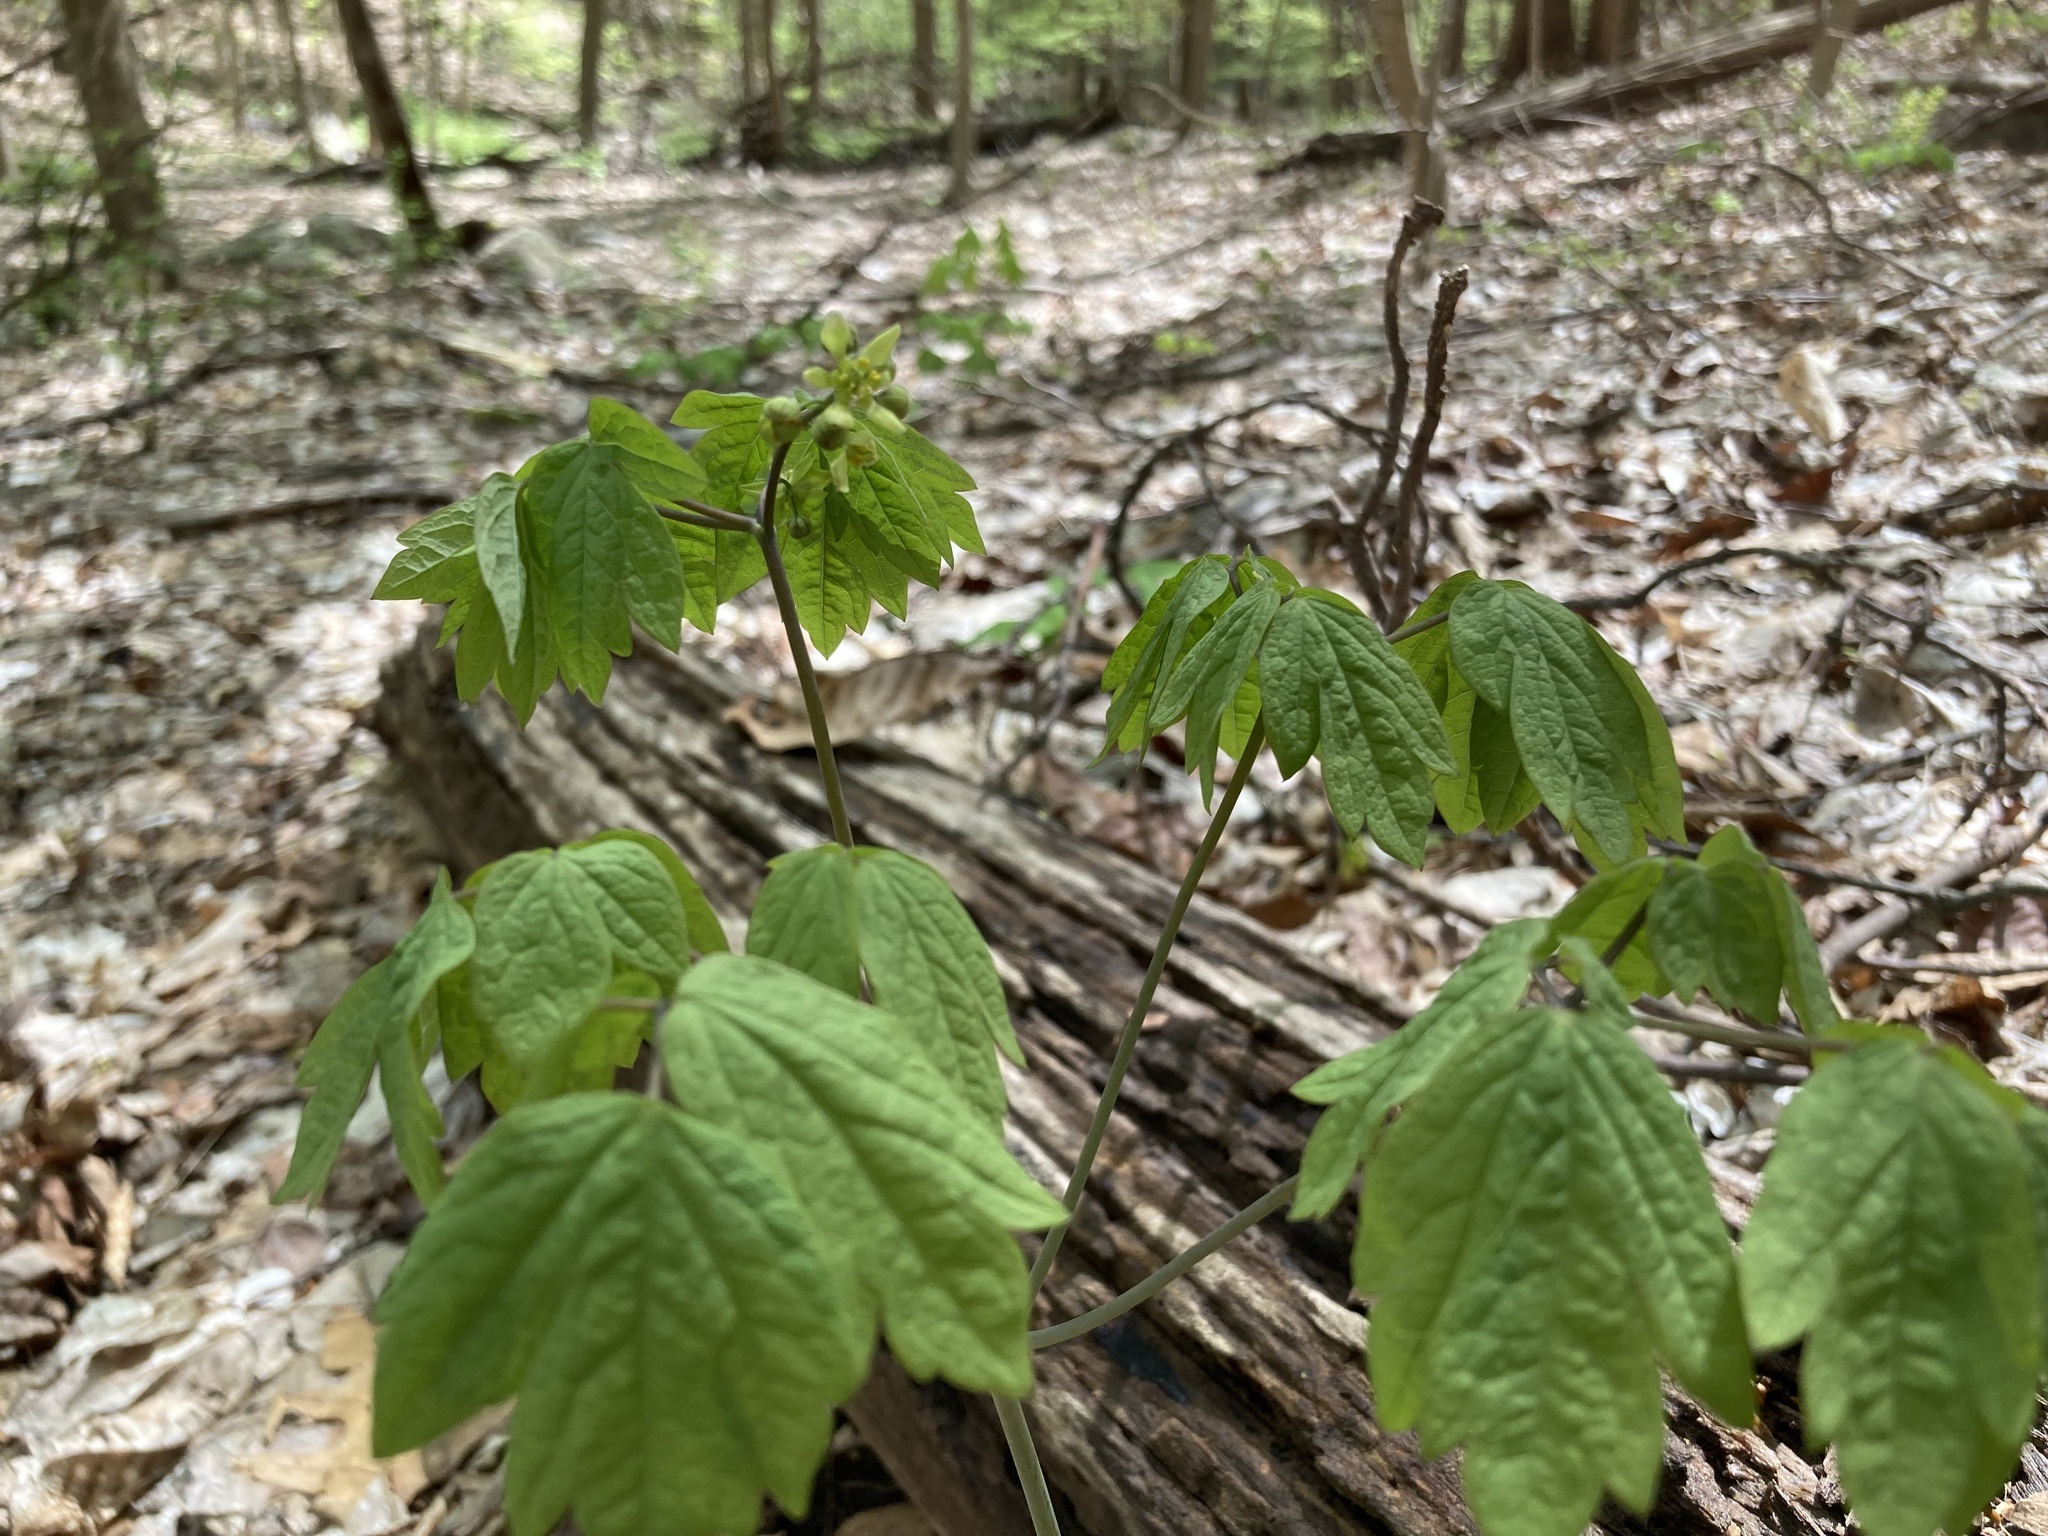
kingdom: Plantae
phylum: Tracheophyta
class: Magnoliopsida
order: Ranunculales
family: Berberidaceae
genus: Caulophyllum
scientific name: Caulophyllum thalictroides
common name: Blue cohosh
